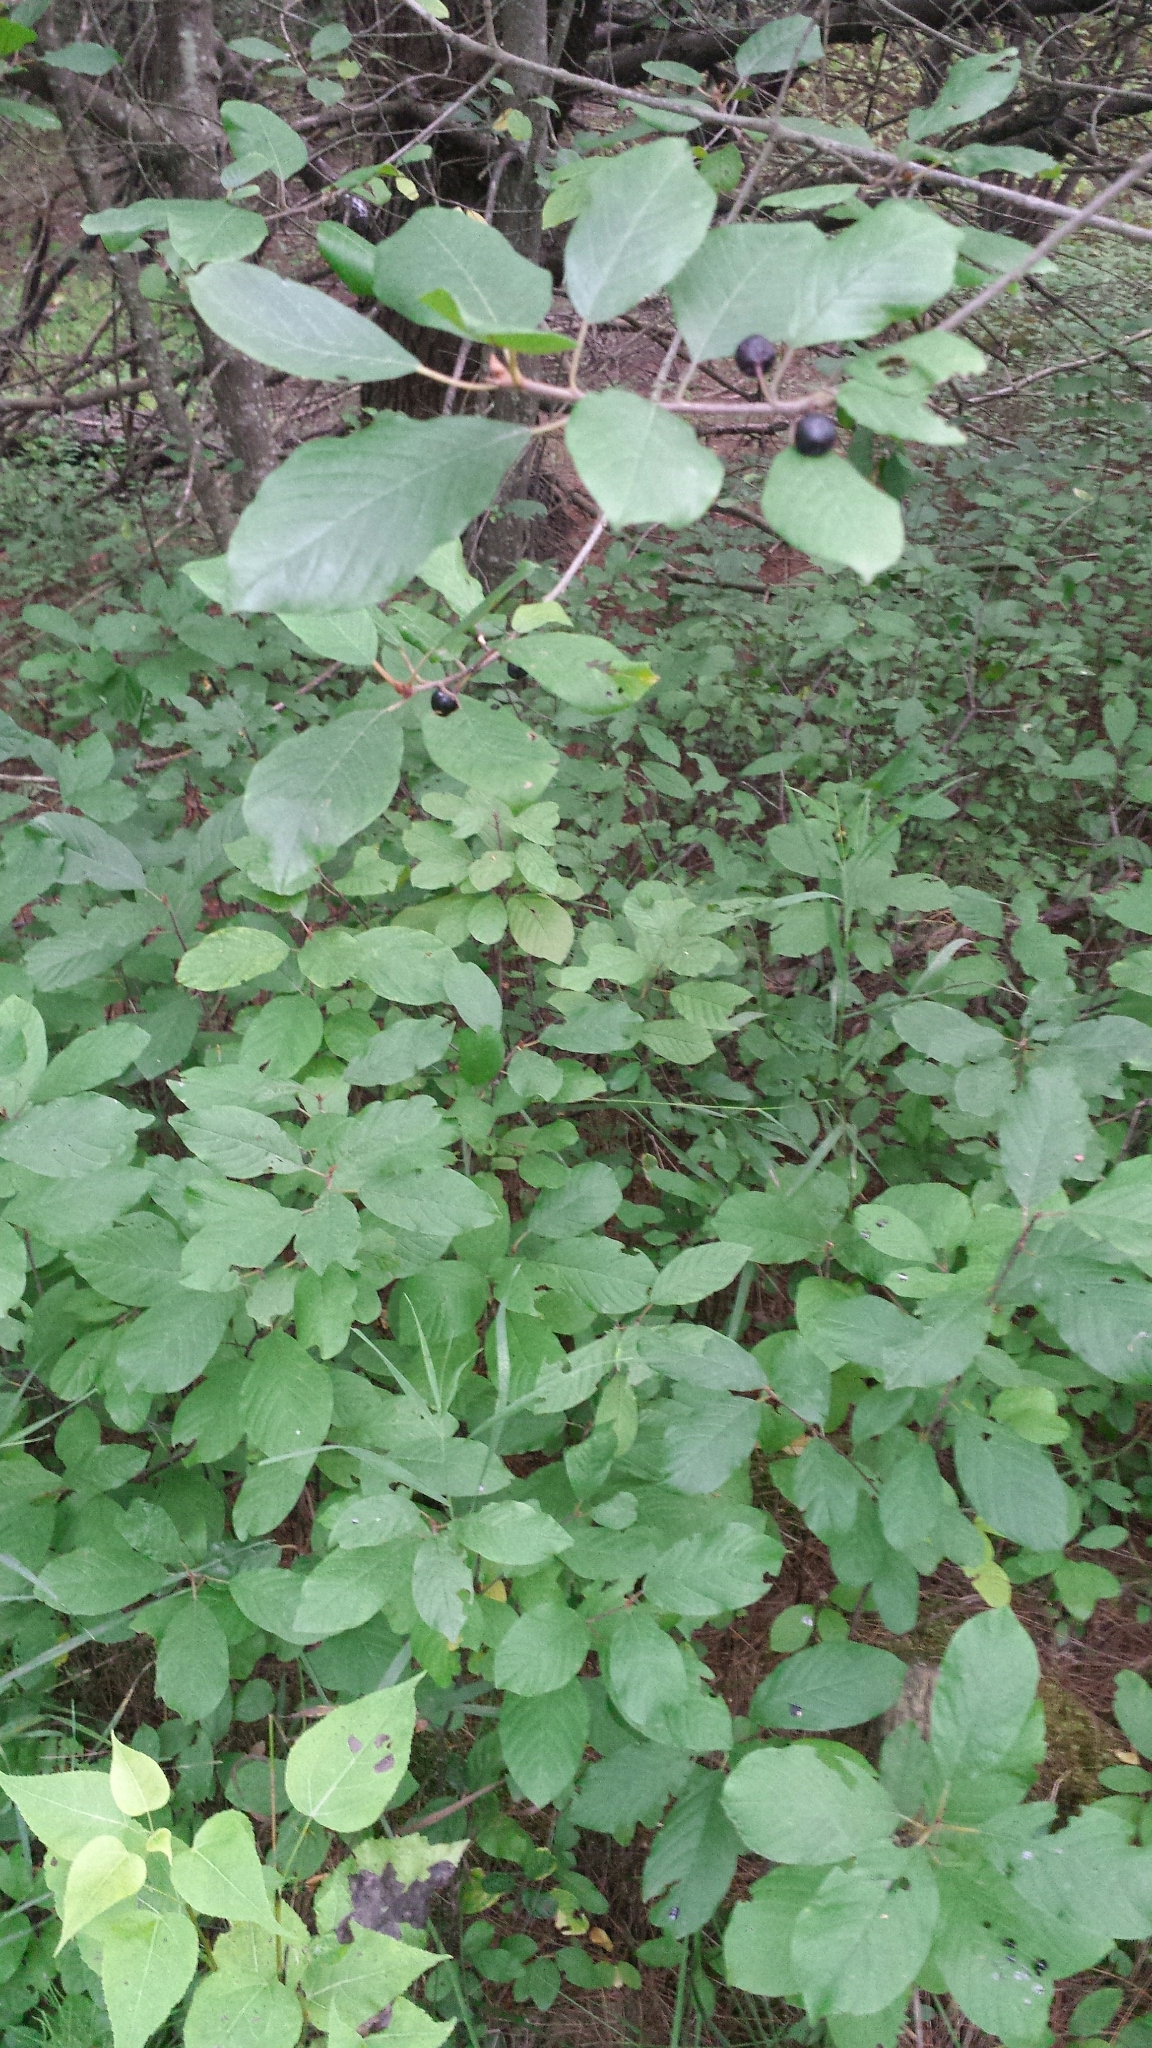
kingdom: Plantae
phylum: Tracheophyta
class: Magnoliopsida
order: Rosales
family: Rhamnaceae
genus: Frangula
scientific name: Frangula alnus
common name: Alder buckthorn
